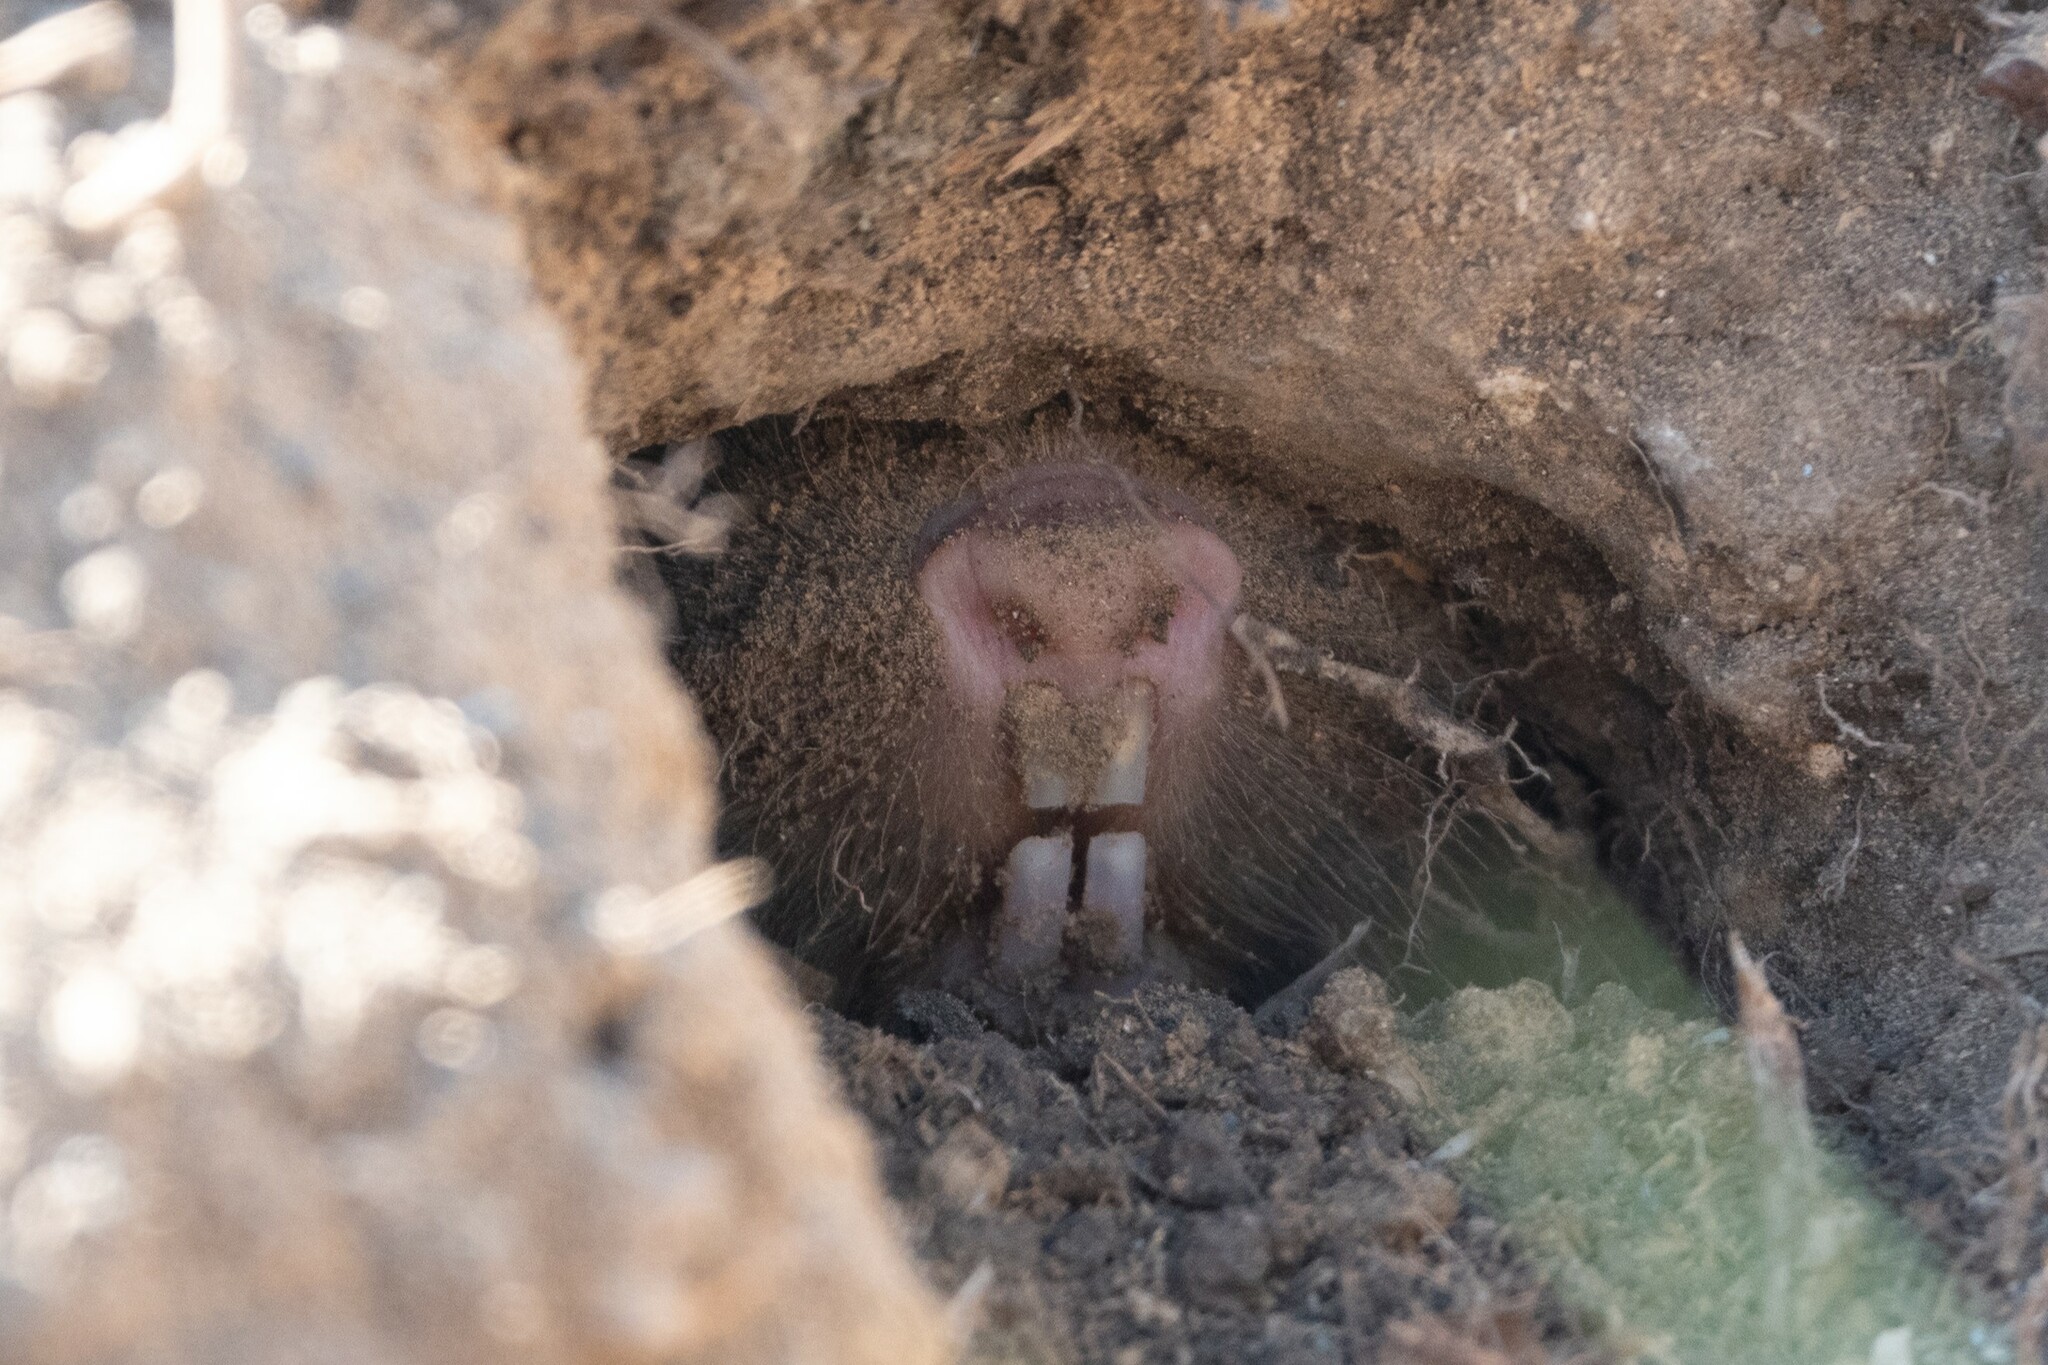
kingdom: Animalia
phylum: Chordata
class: Mammalia
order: Rodentia
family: Spalacidae
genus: Spalax
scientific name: Spalax leucodon
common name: Lesser blind mole rat
